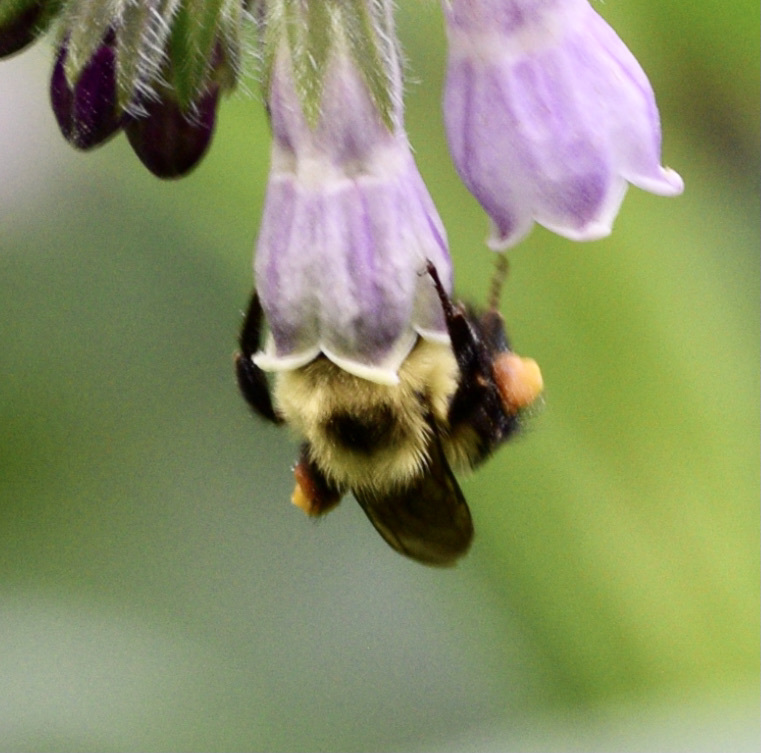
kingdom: Animalia
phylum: Arthropoda
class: Insecta
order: Hymenoptera
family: Apidae
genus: Bombus
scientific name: Bombus bimaculatus
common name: Two-spotted bumble bee
